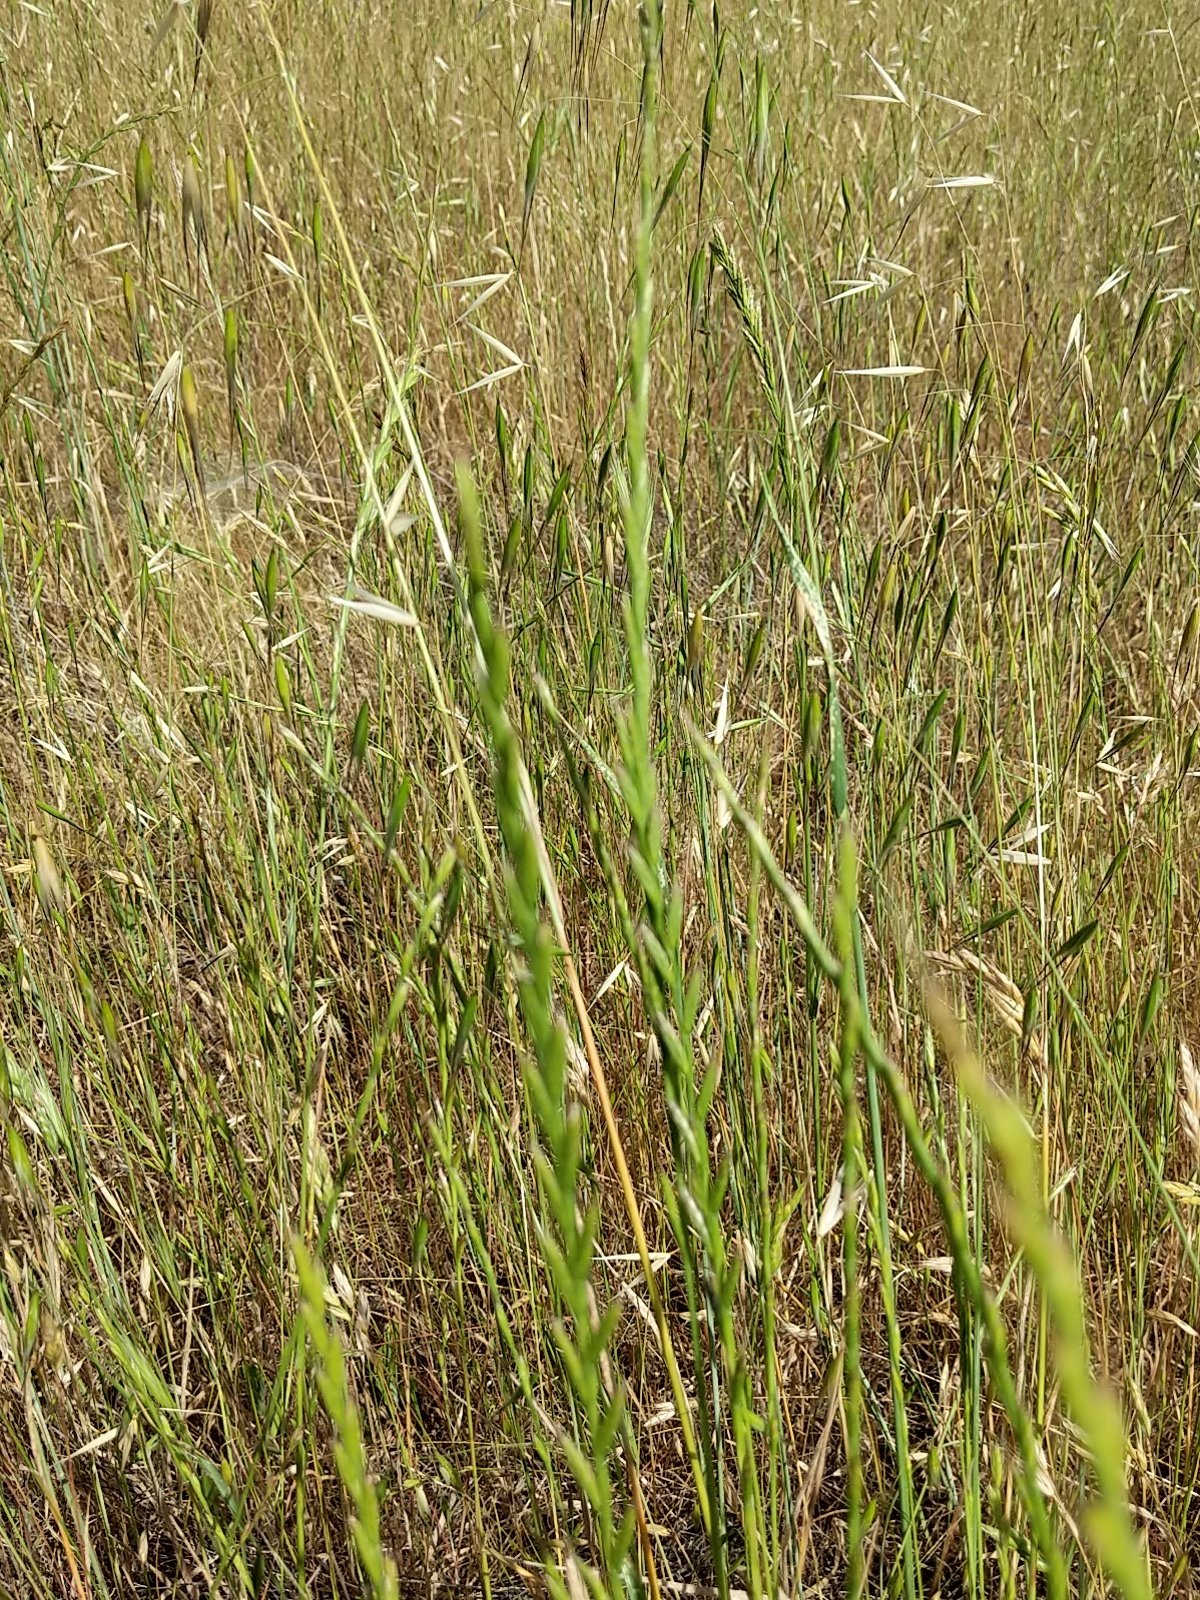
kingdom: Plantae
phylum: Tracheophyta
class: Liliopsida
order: Poales
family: Poaceae
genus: Lolium
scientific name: Lolium perenne
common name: Perennial ryegrass
